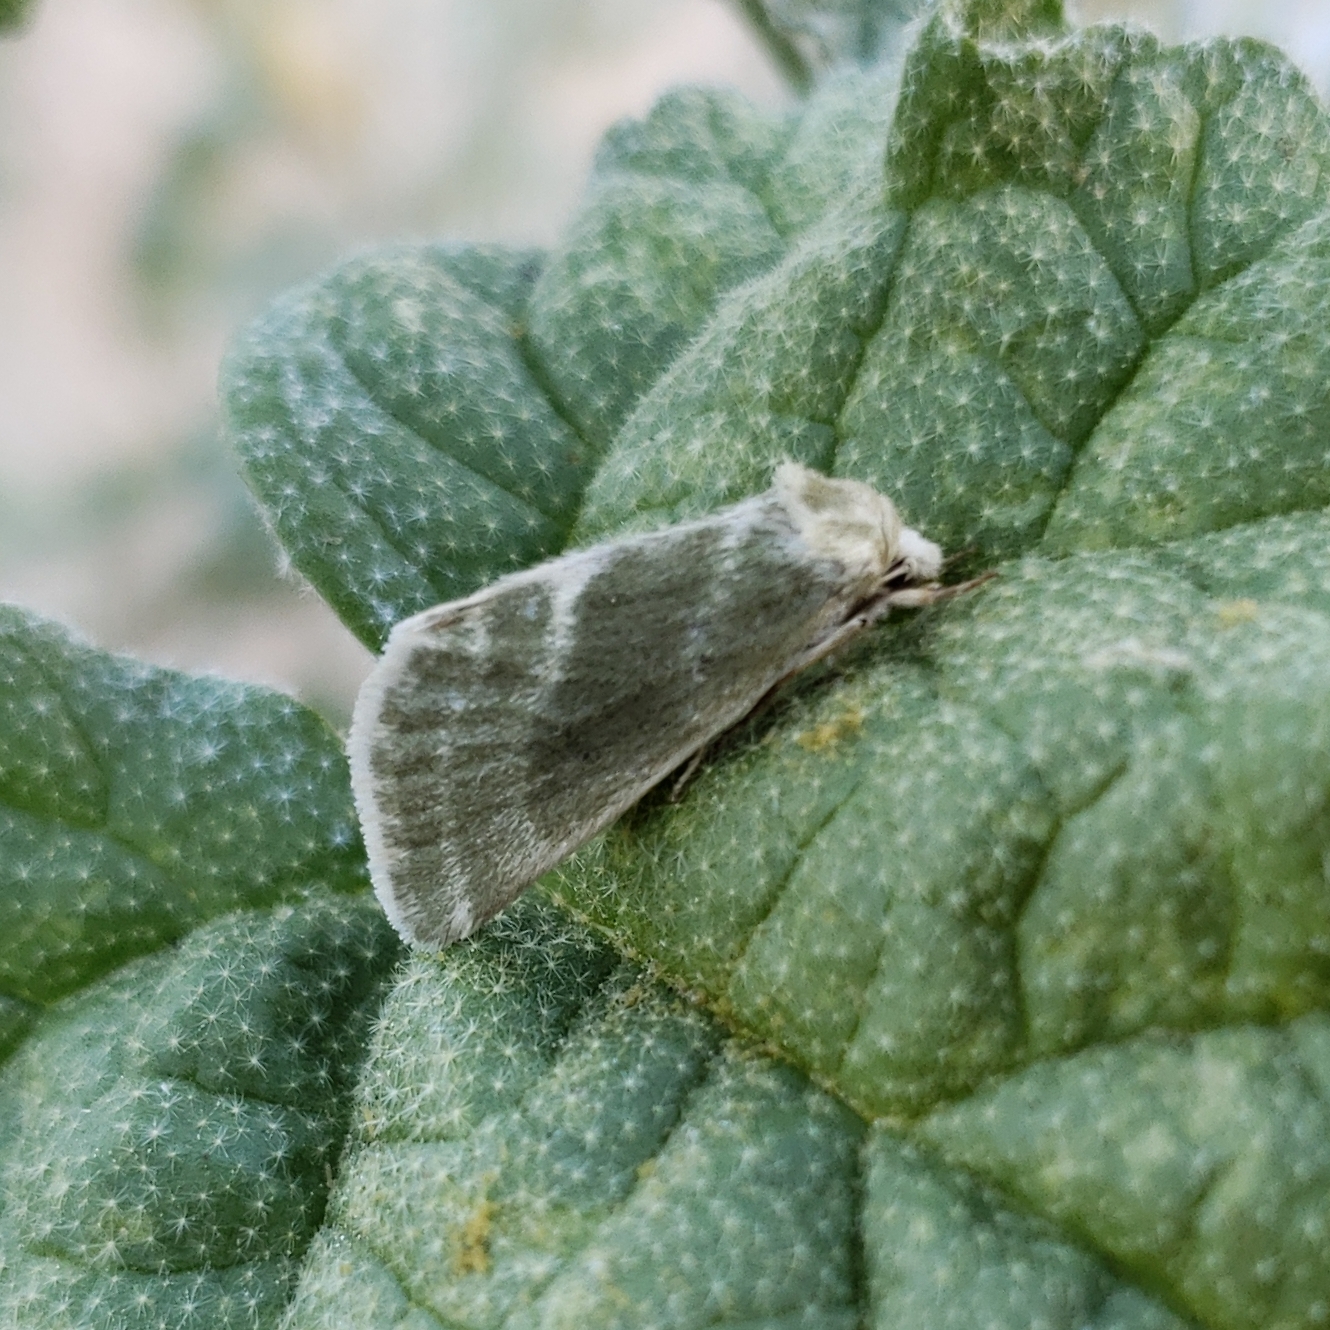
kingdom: Animalia
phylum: Arthropoda
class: Insecta
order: Lepidoptera
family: Noctuidae
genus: Azenia
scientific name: Azenia virida
